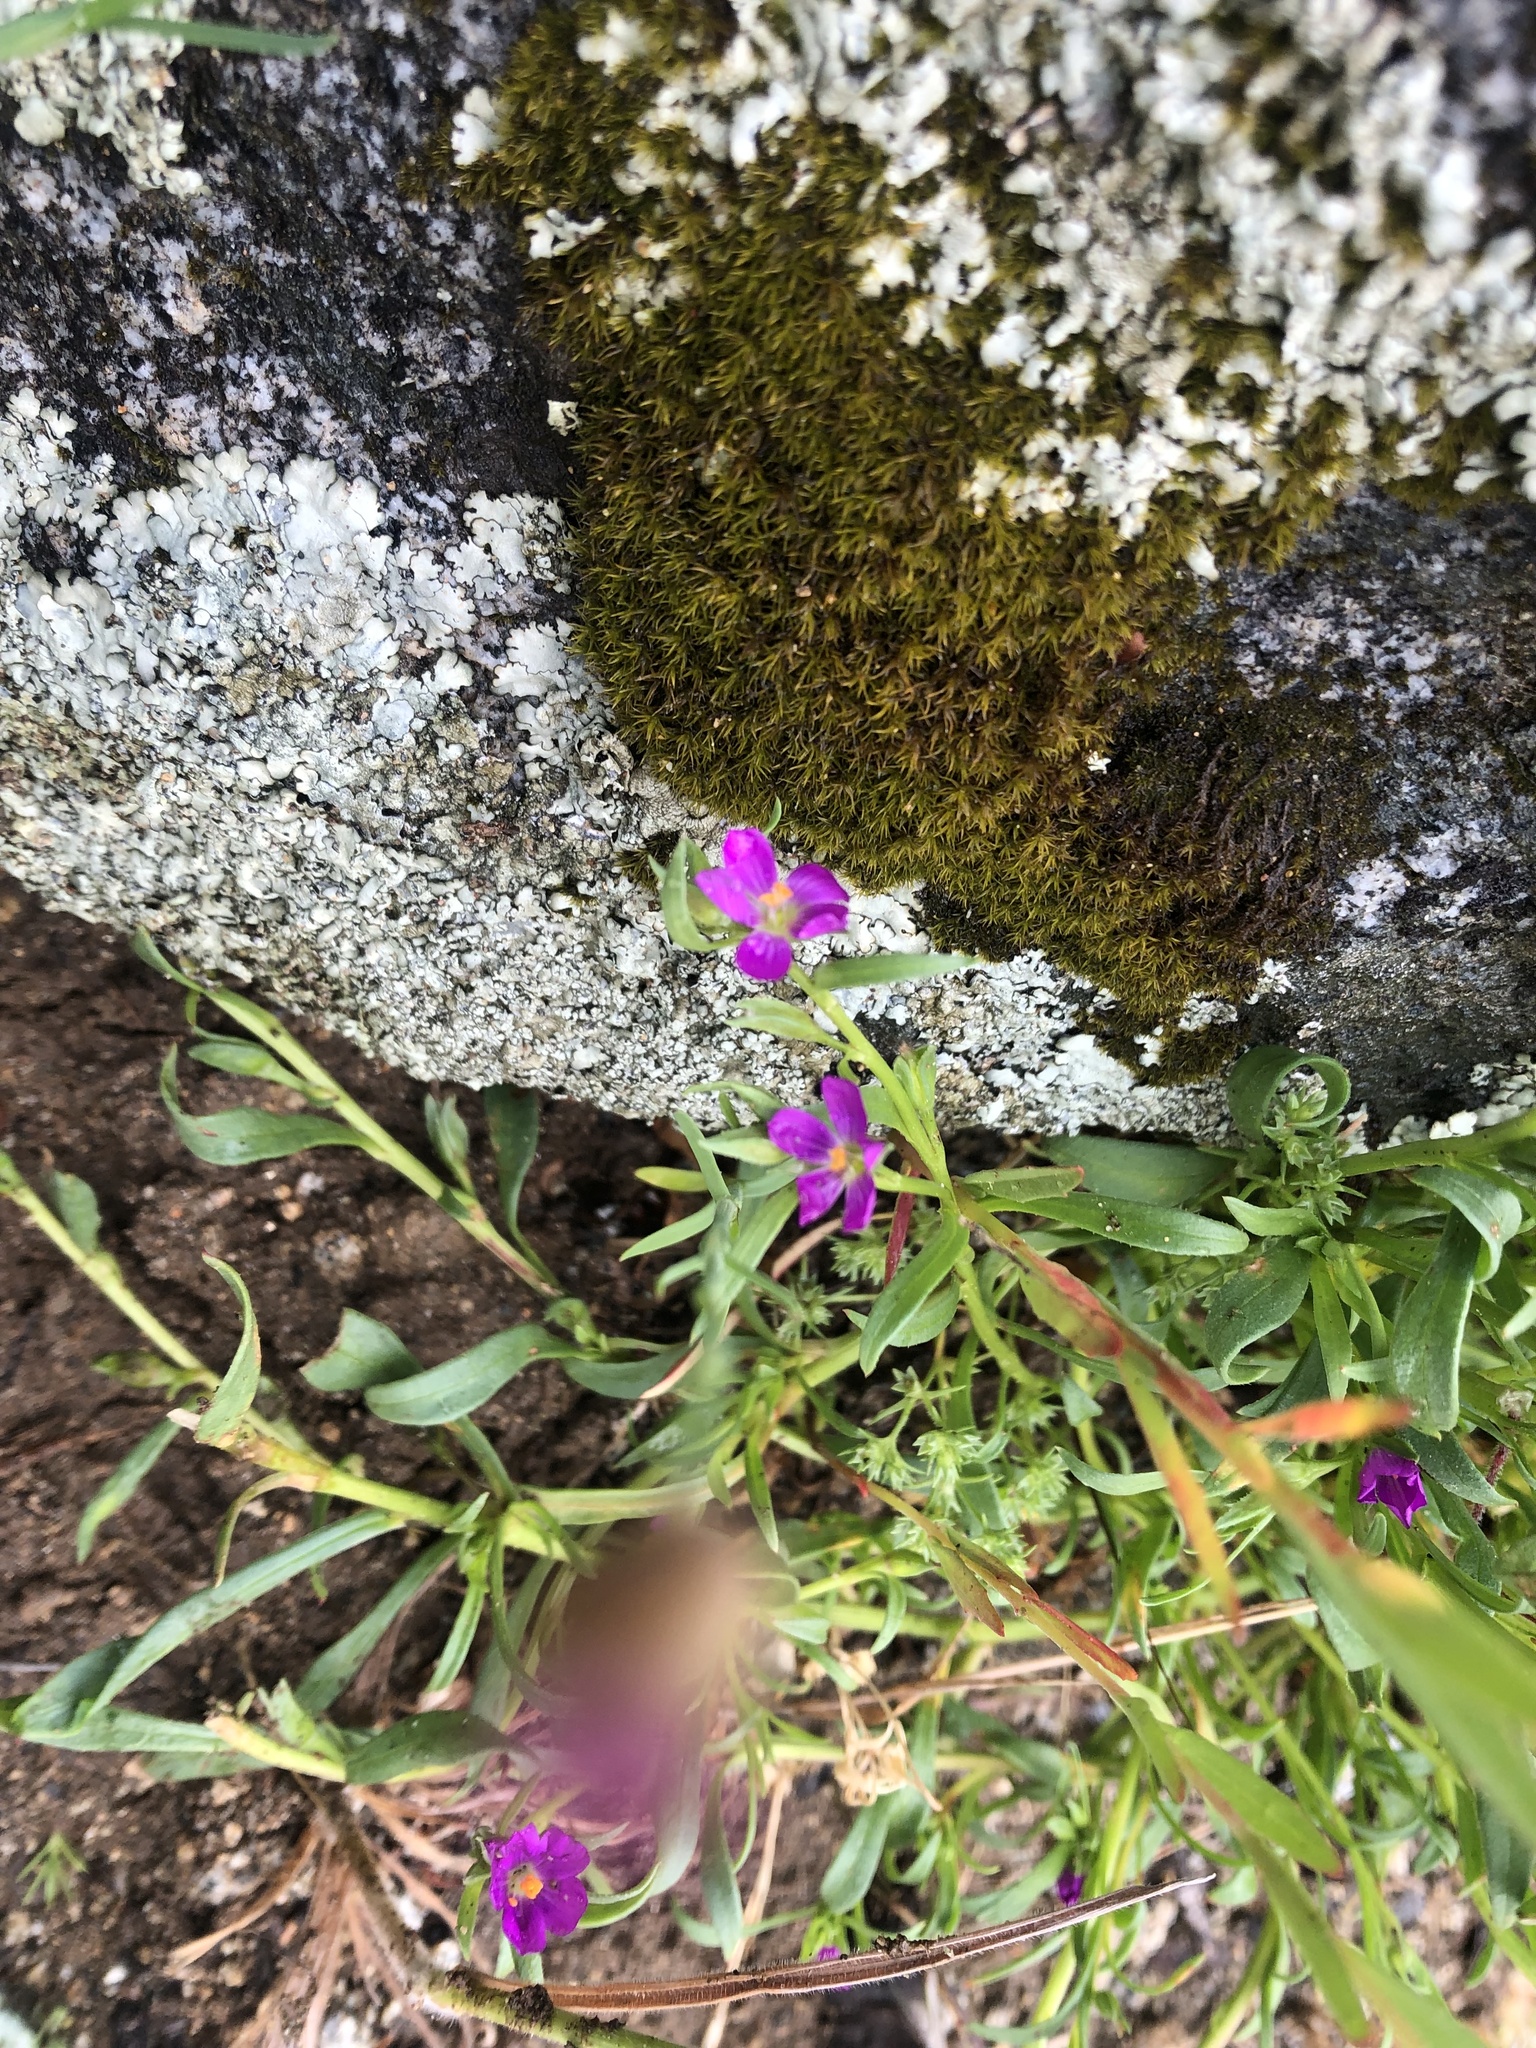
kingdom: Plantae
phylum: Tracheophyta
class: Magnoliopsida
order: Caryophyllales
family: Montiaceae
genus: Calandrinia
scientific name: Calandrinia menziesii
